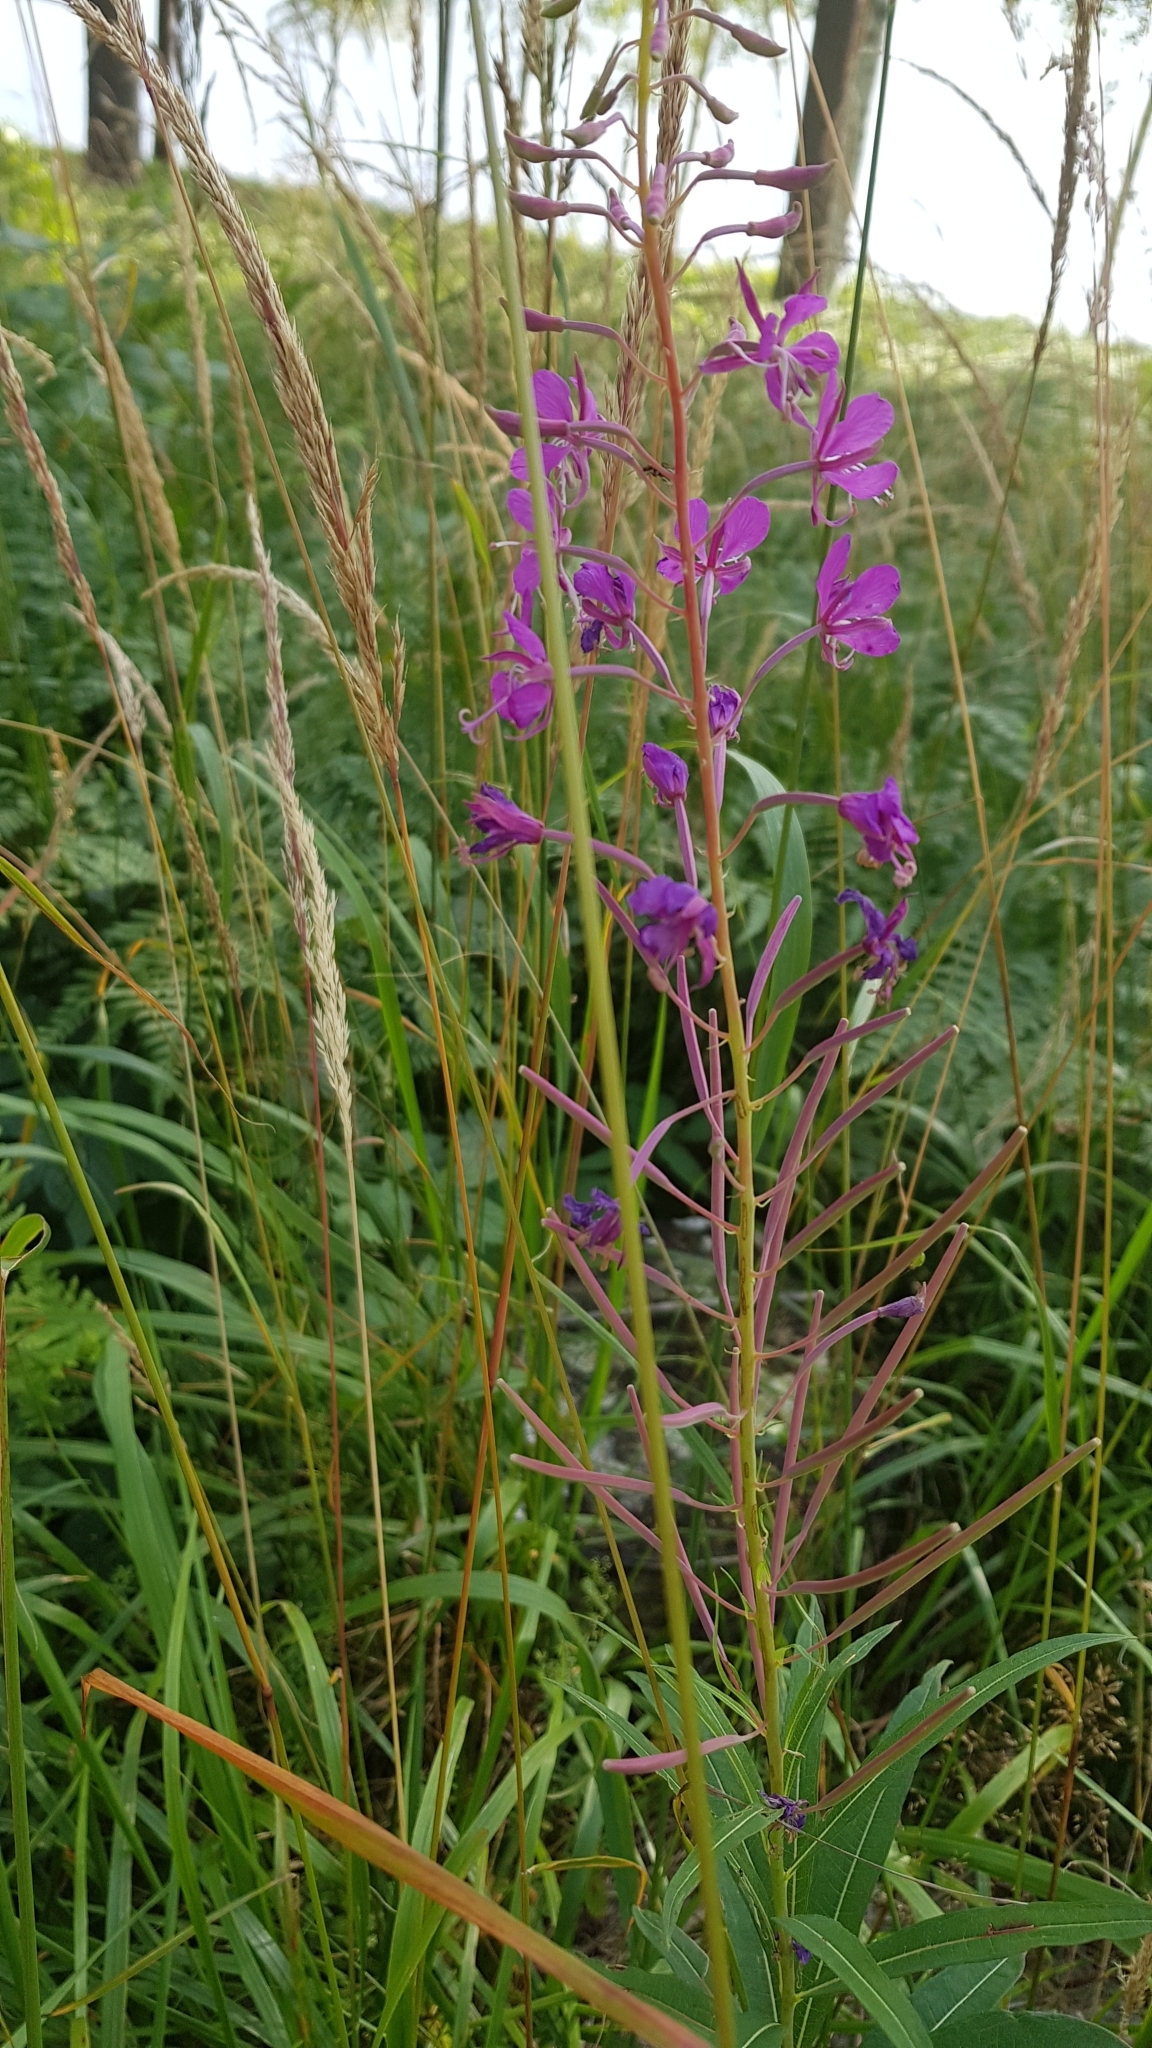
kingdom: Plantae
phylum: Tracheophyta
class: Magnoliopsida
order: Myrtales
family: Onagraceae
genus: Chamaenerion
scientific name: Chamaenerion angustifolium
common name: Fireweed
